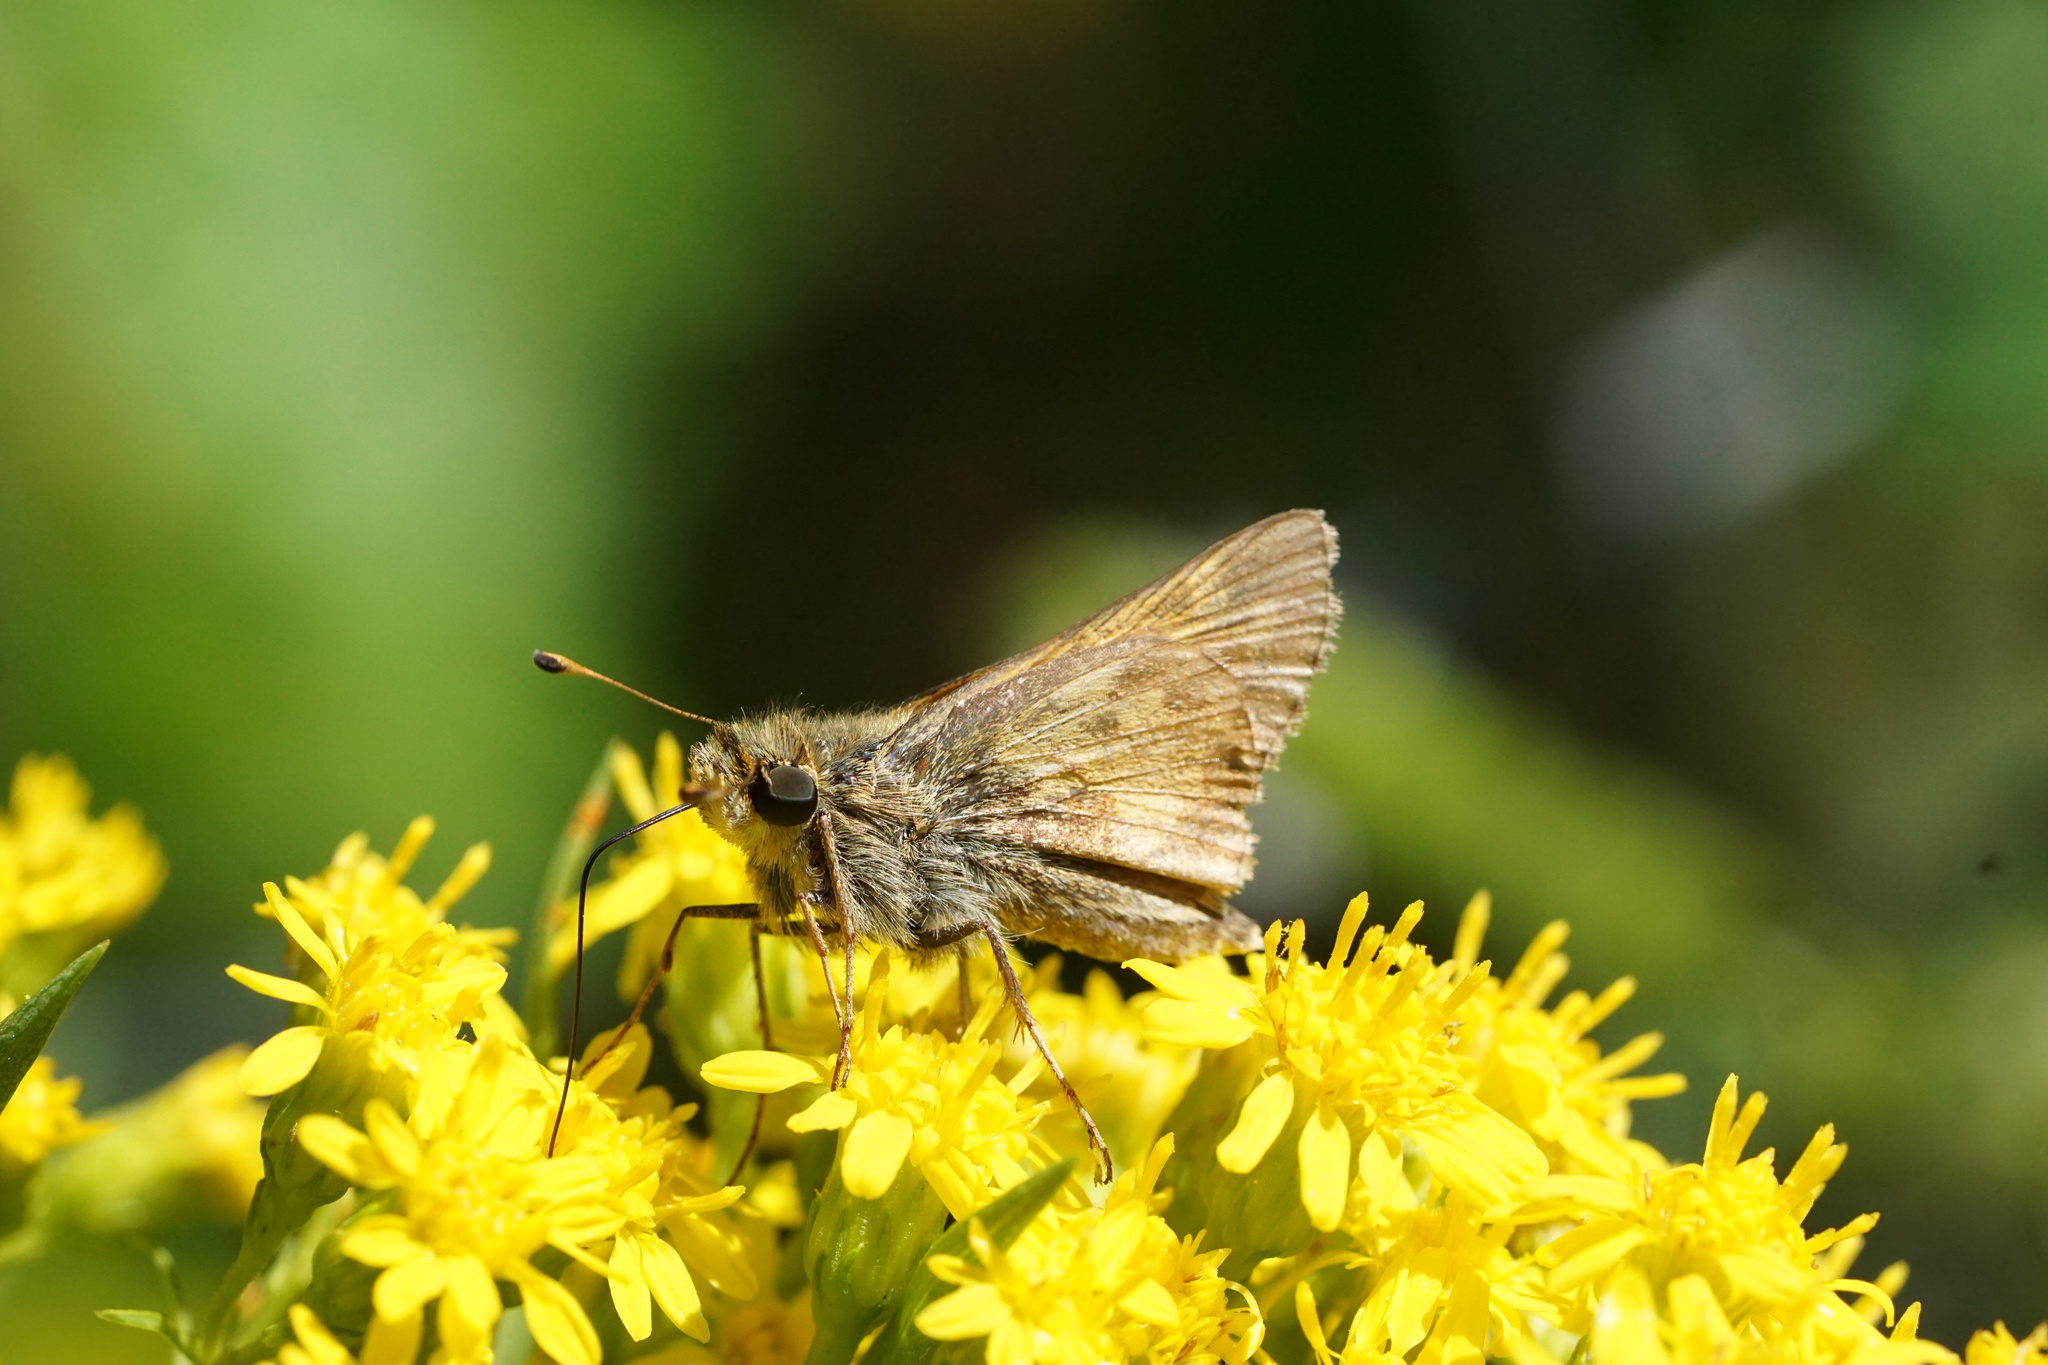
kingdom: Animalia
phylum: Arthropoda
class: Insecta
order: Lepidoptera
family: Hesperiidae
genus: Atalopedes
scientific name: Atalopedes
